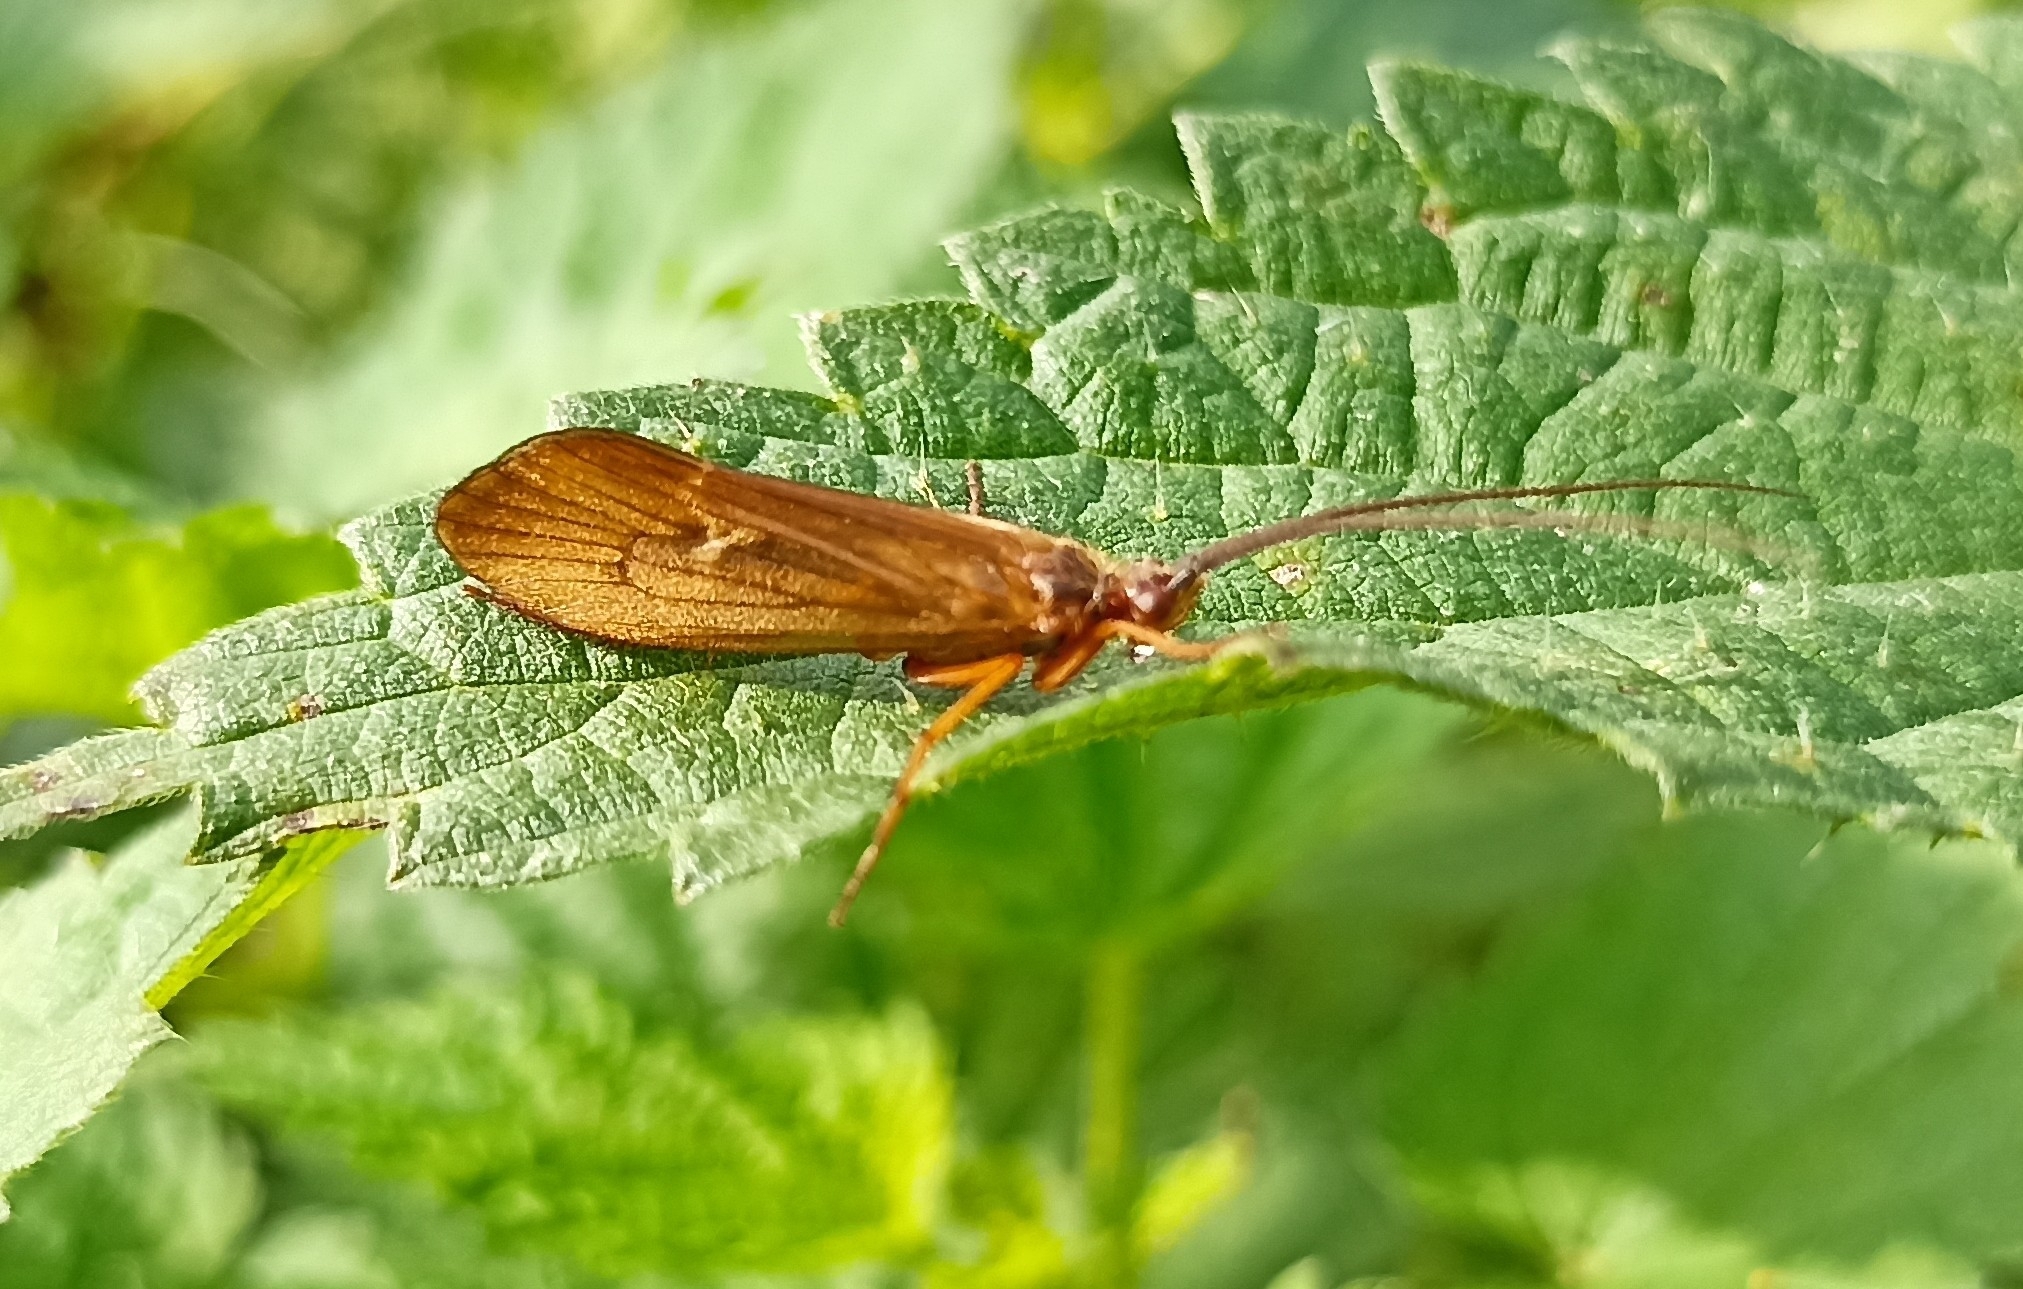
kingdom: Animalia
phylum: Arthropoda
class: Insecta
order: Trichoptera
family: Limnephilidae
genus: Anabolia
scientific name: Anabolia nervosa
